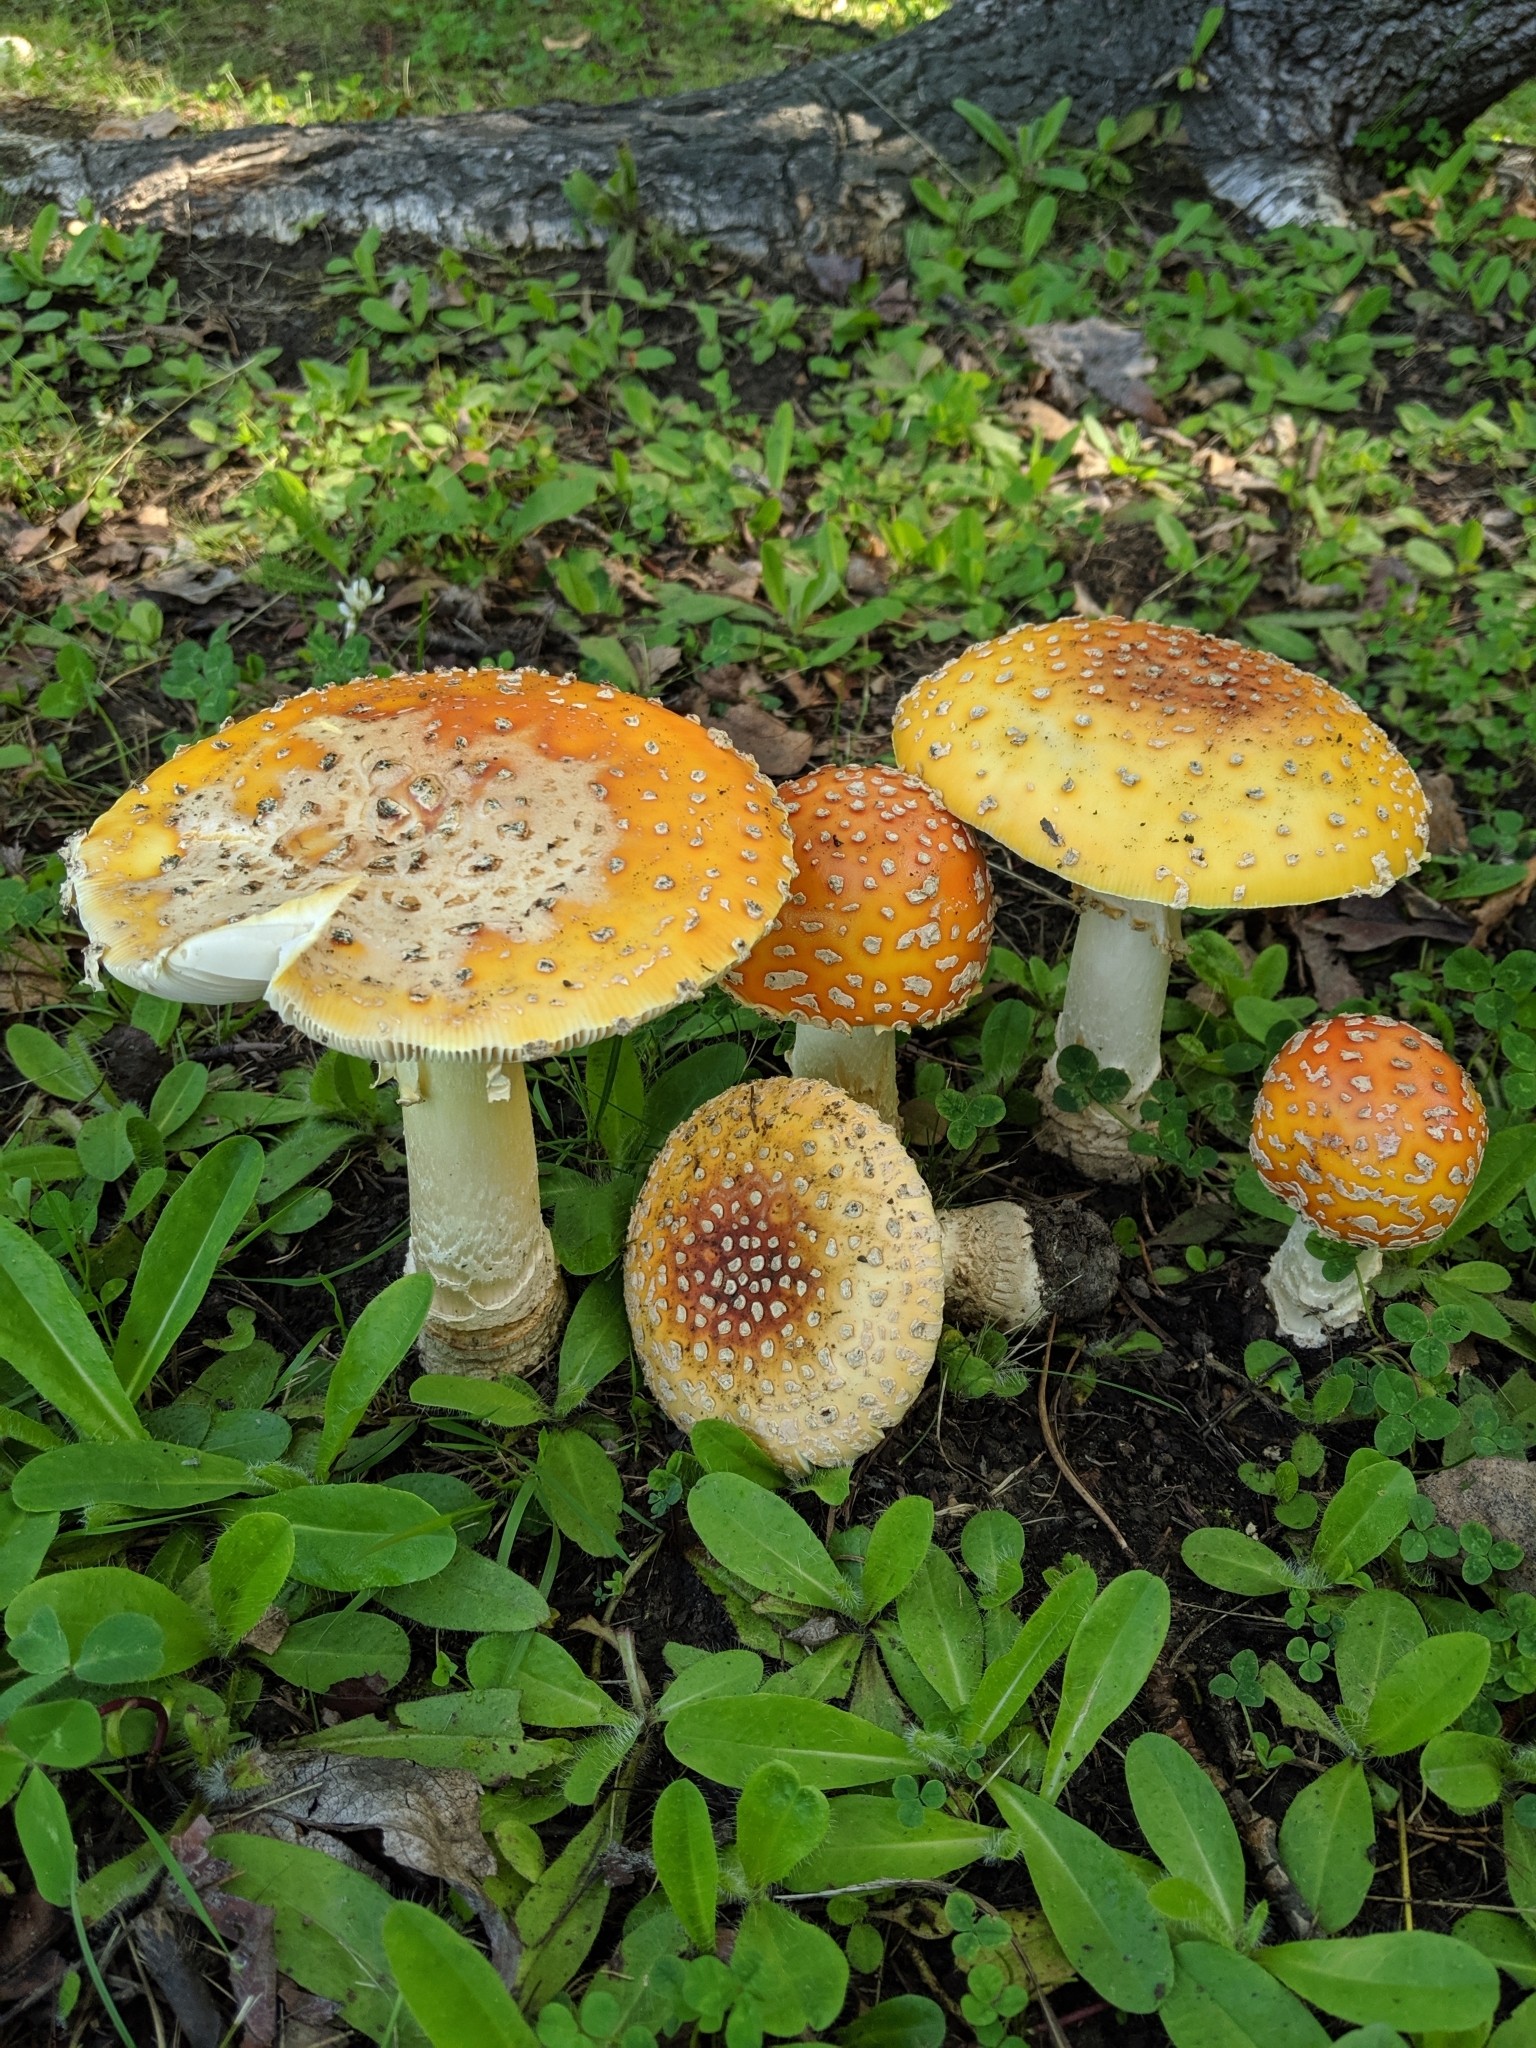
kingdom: Fungi
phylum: Basidiomycota
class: Agaricomycetes
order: Agaricales
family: Amanitaceae
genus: Amanita
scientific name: Amanita muscaria
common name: Fly agaric
